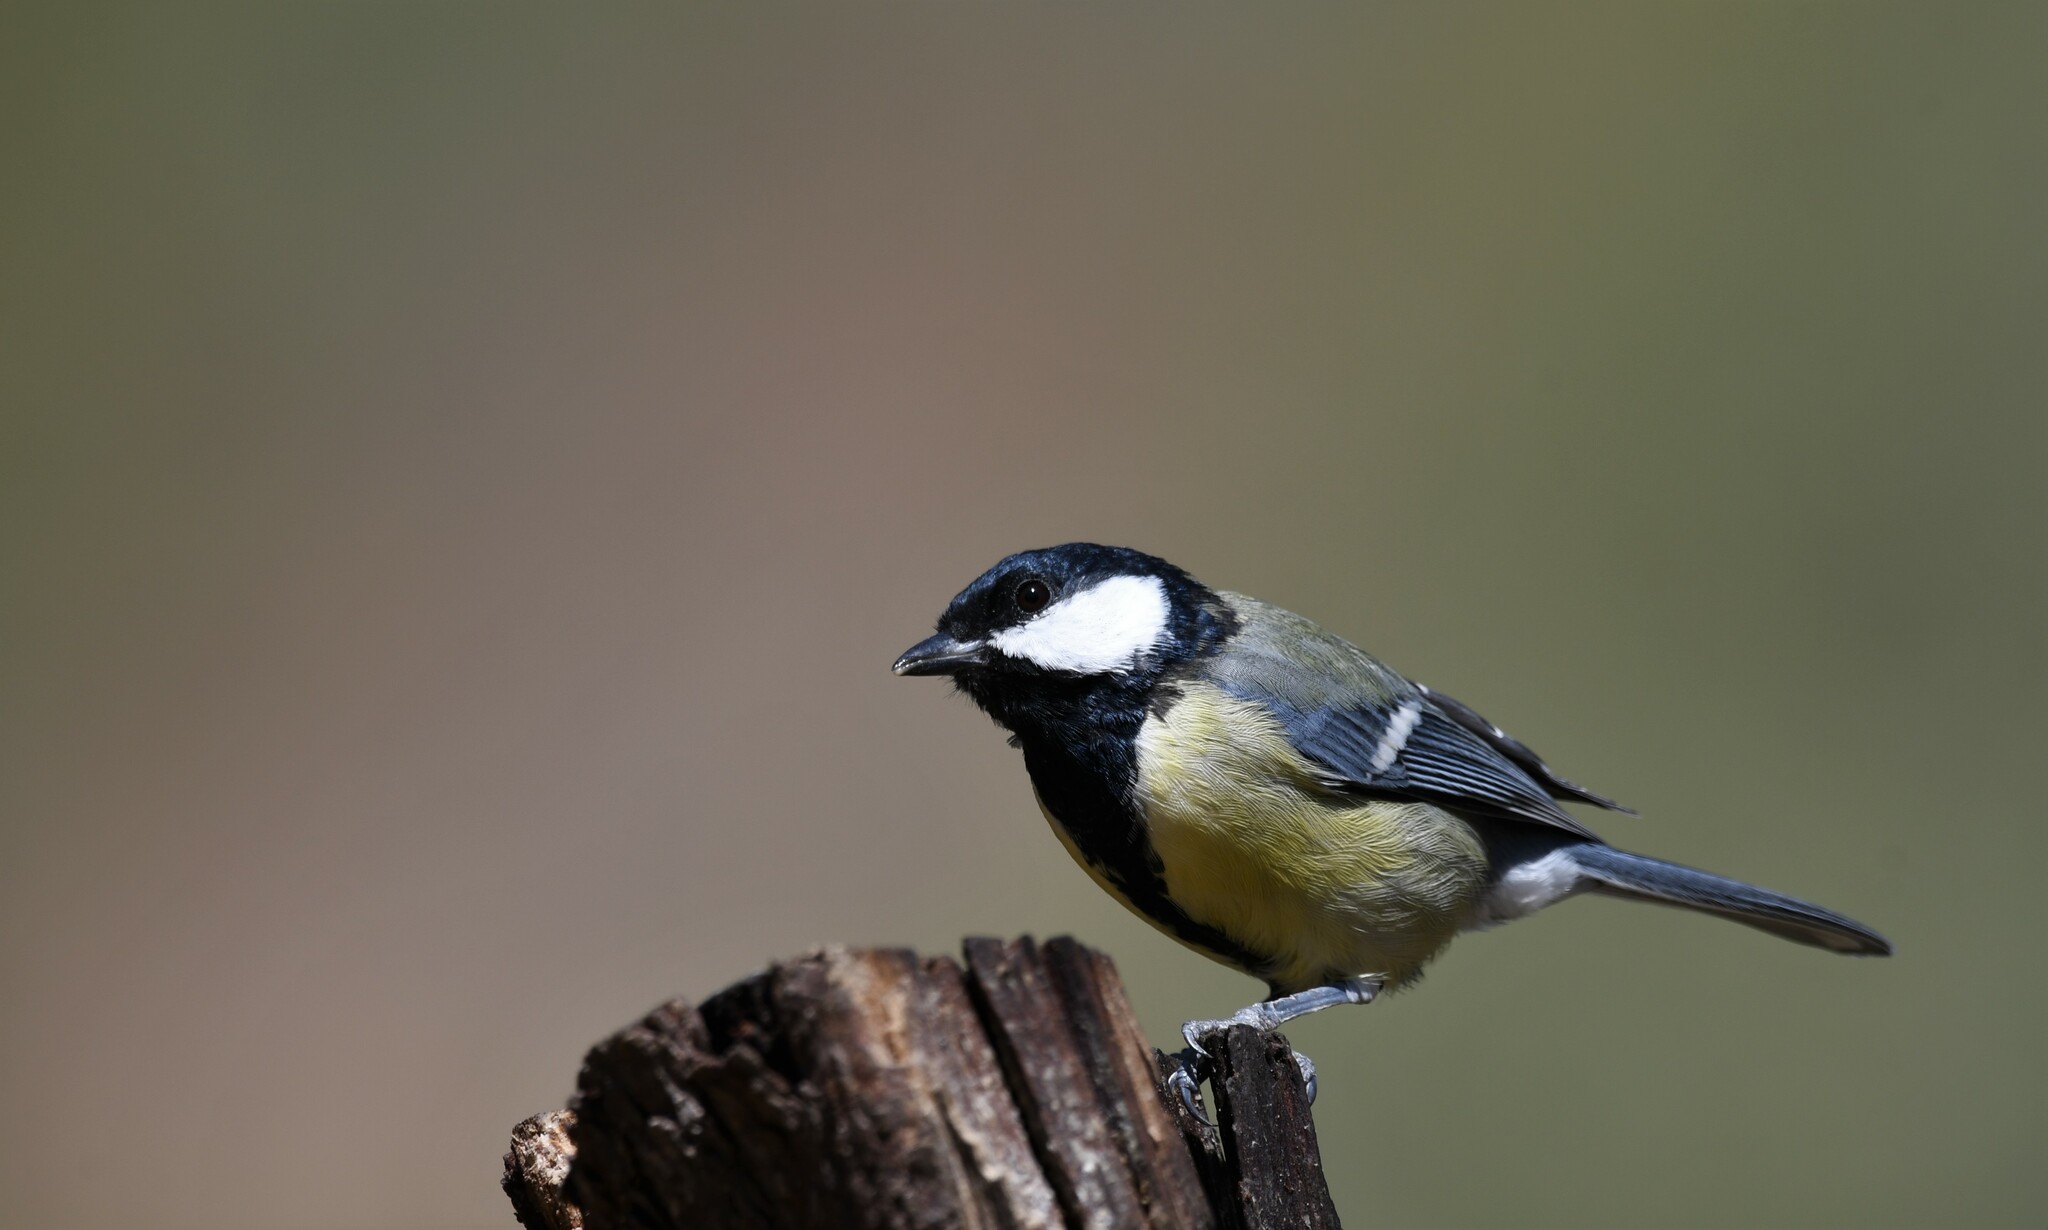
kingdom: Animalia
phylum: Chordata
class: Aves
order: Passeriformes
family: Paridae
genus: Parus
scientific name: Parus major
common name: Great tit
